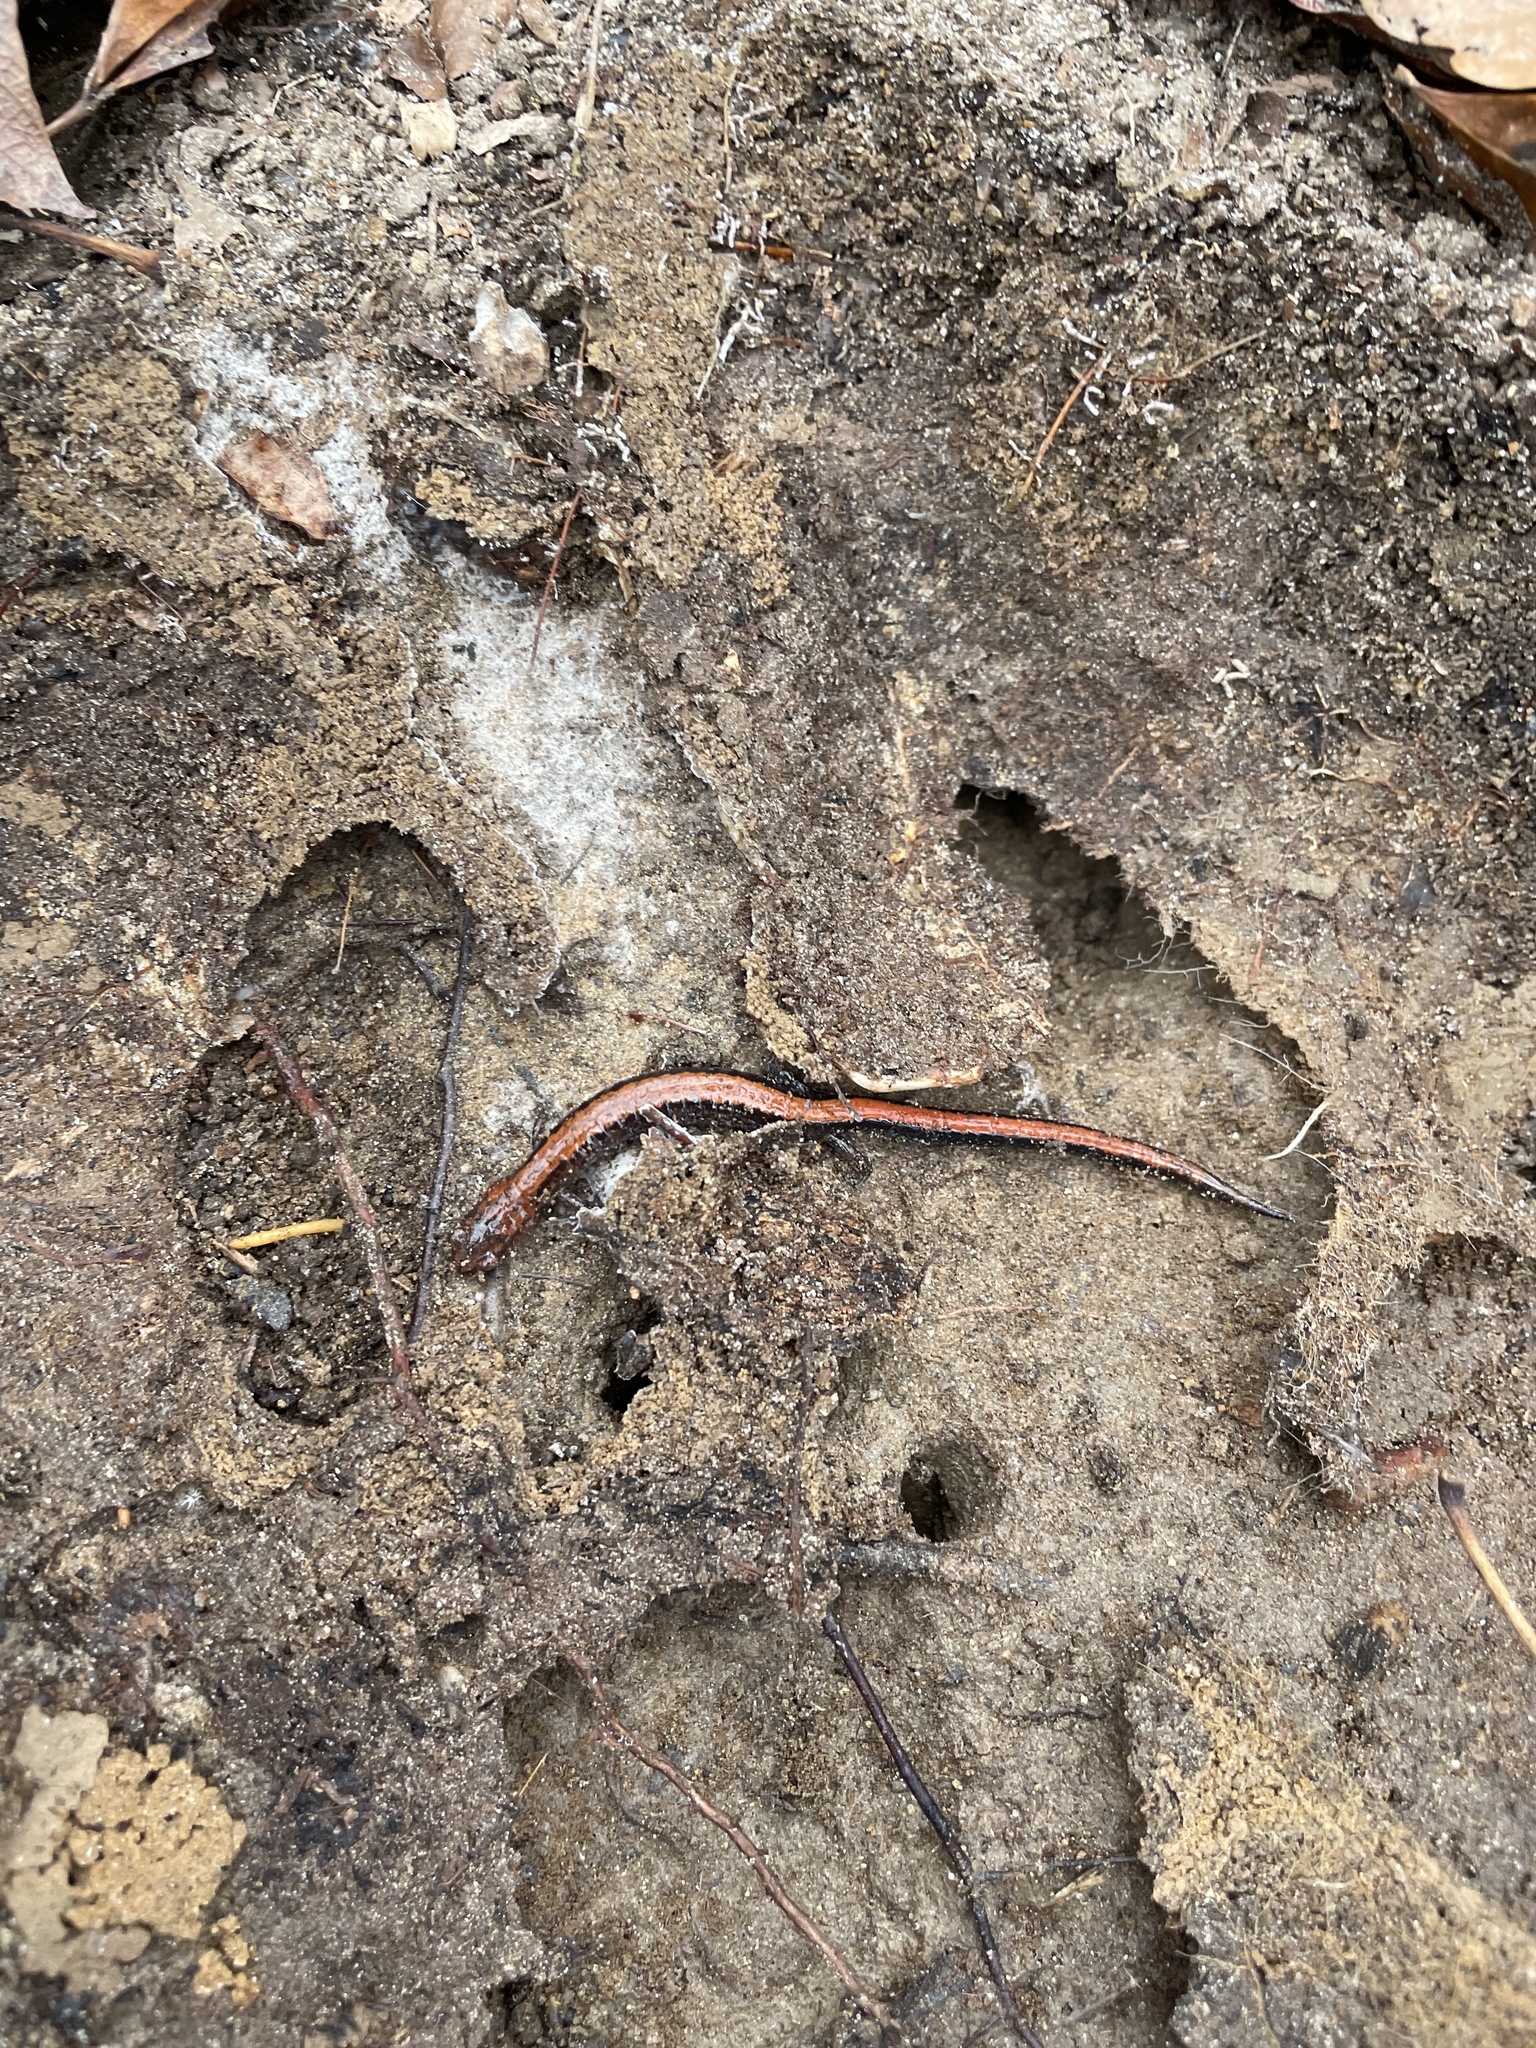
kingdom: Animalia
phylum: Chordata
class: Amphibia
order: Caudata
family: Plethodontidae
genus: Plethodon
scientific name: Plethodon cinereus
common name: Redback salamander
